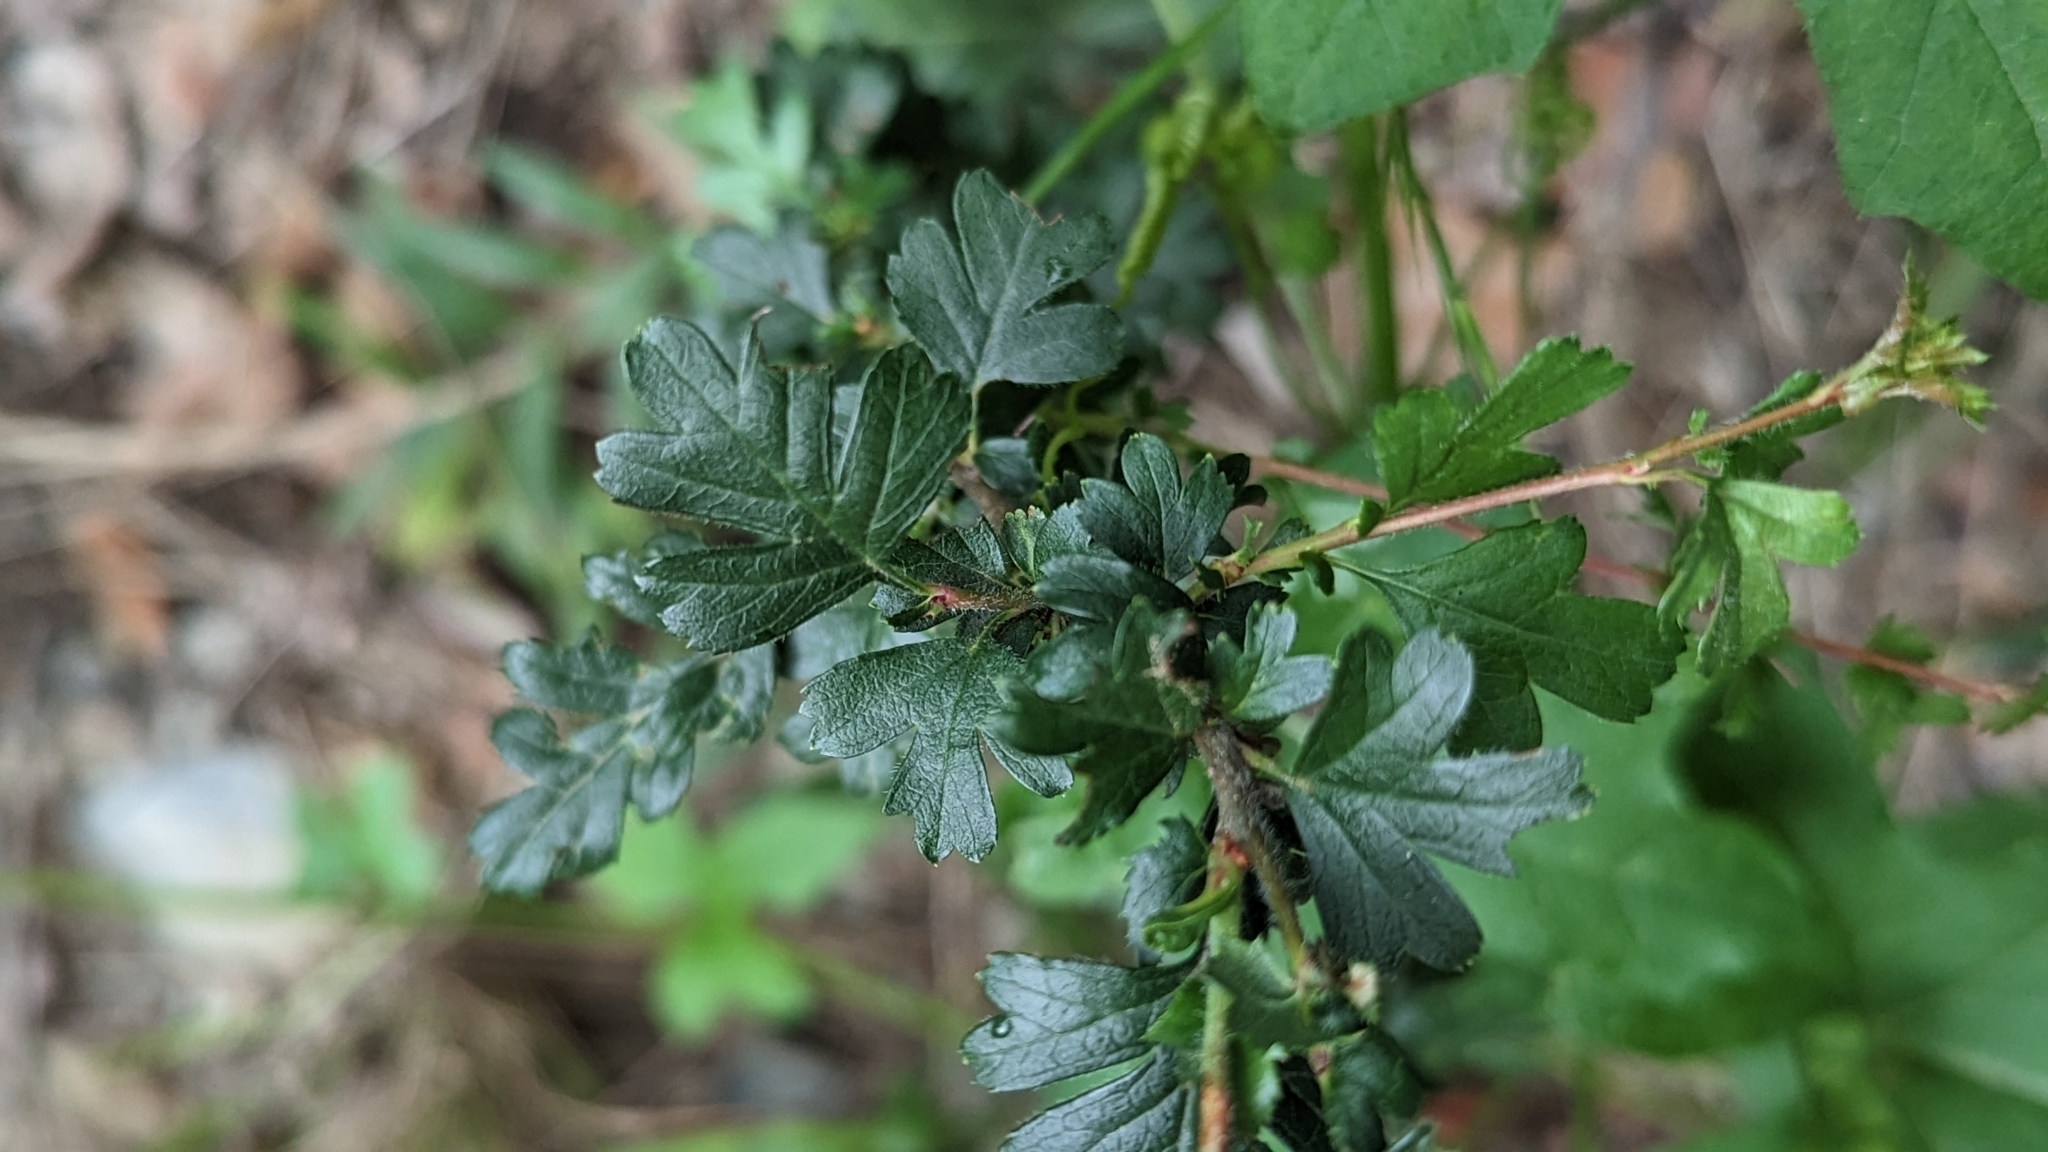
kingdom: Plantae
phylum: Tracheophyta
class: Magnoliopsida
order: Rosales
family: Rosaceae
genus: Crataegus
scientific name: Crataegus monogyna
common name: Hawthorn
